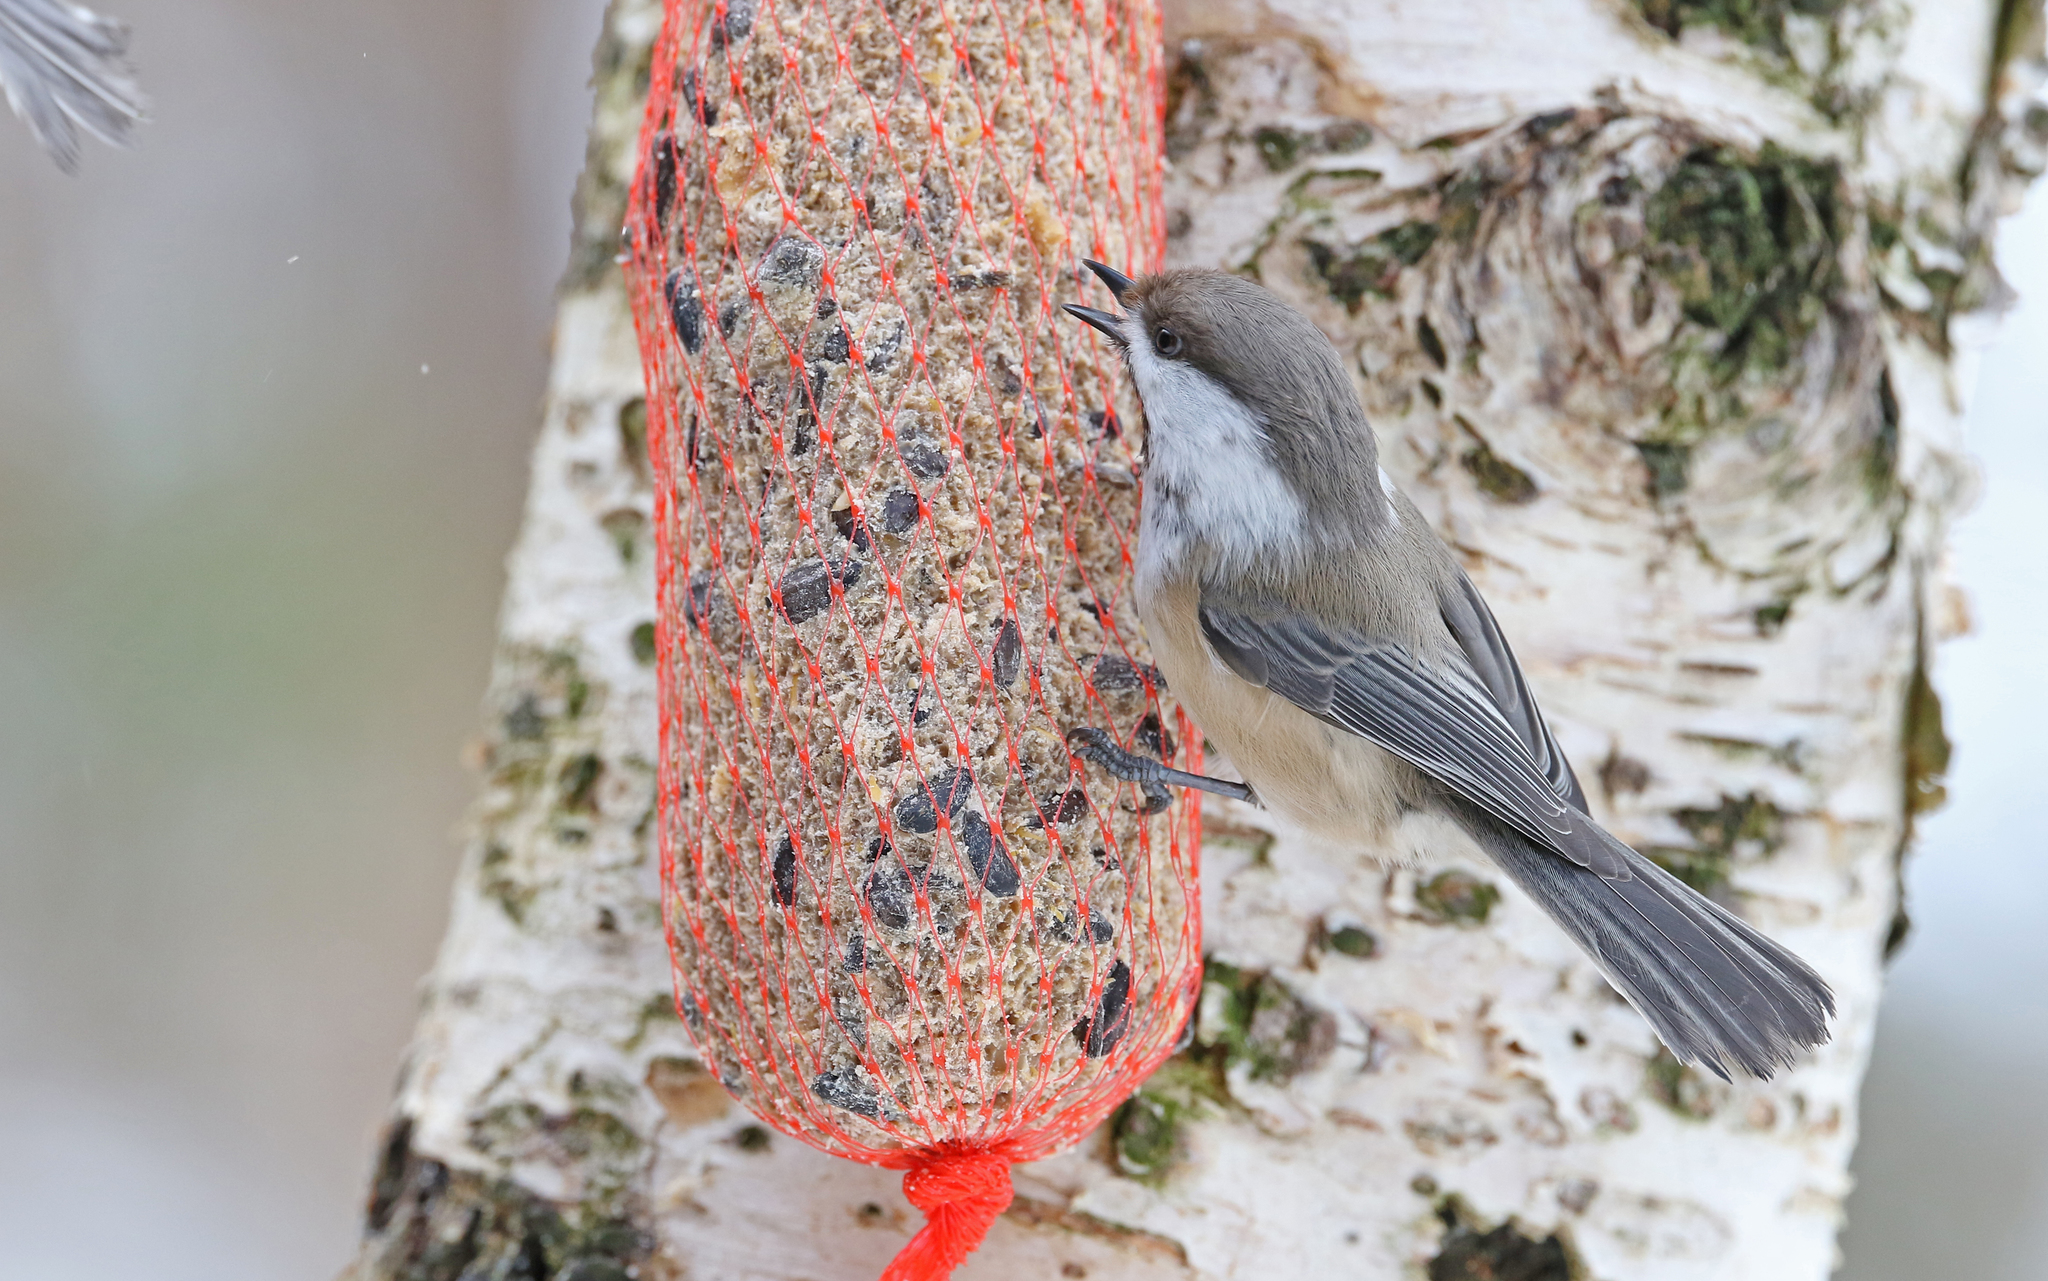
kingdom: Animalia
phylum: Chordata
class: Aves
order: Passeriformes
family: Paridae
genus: Poecile
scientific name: Poecile cinctus
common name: Gray-headed chickadee
